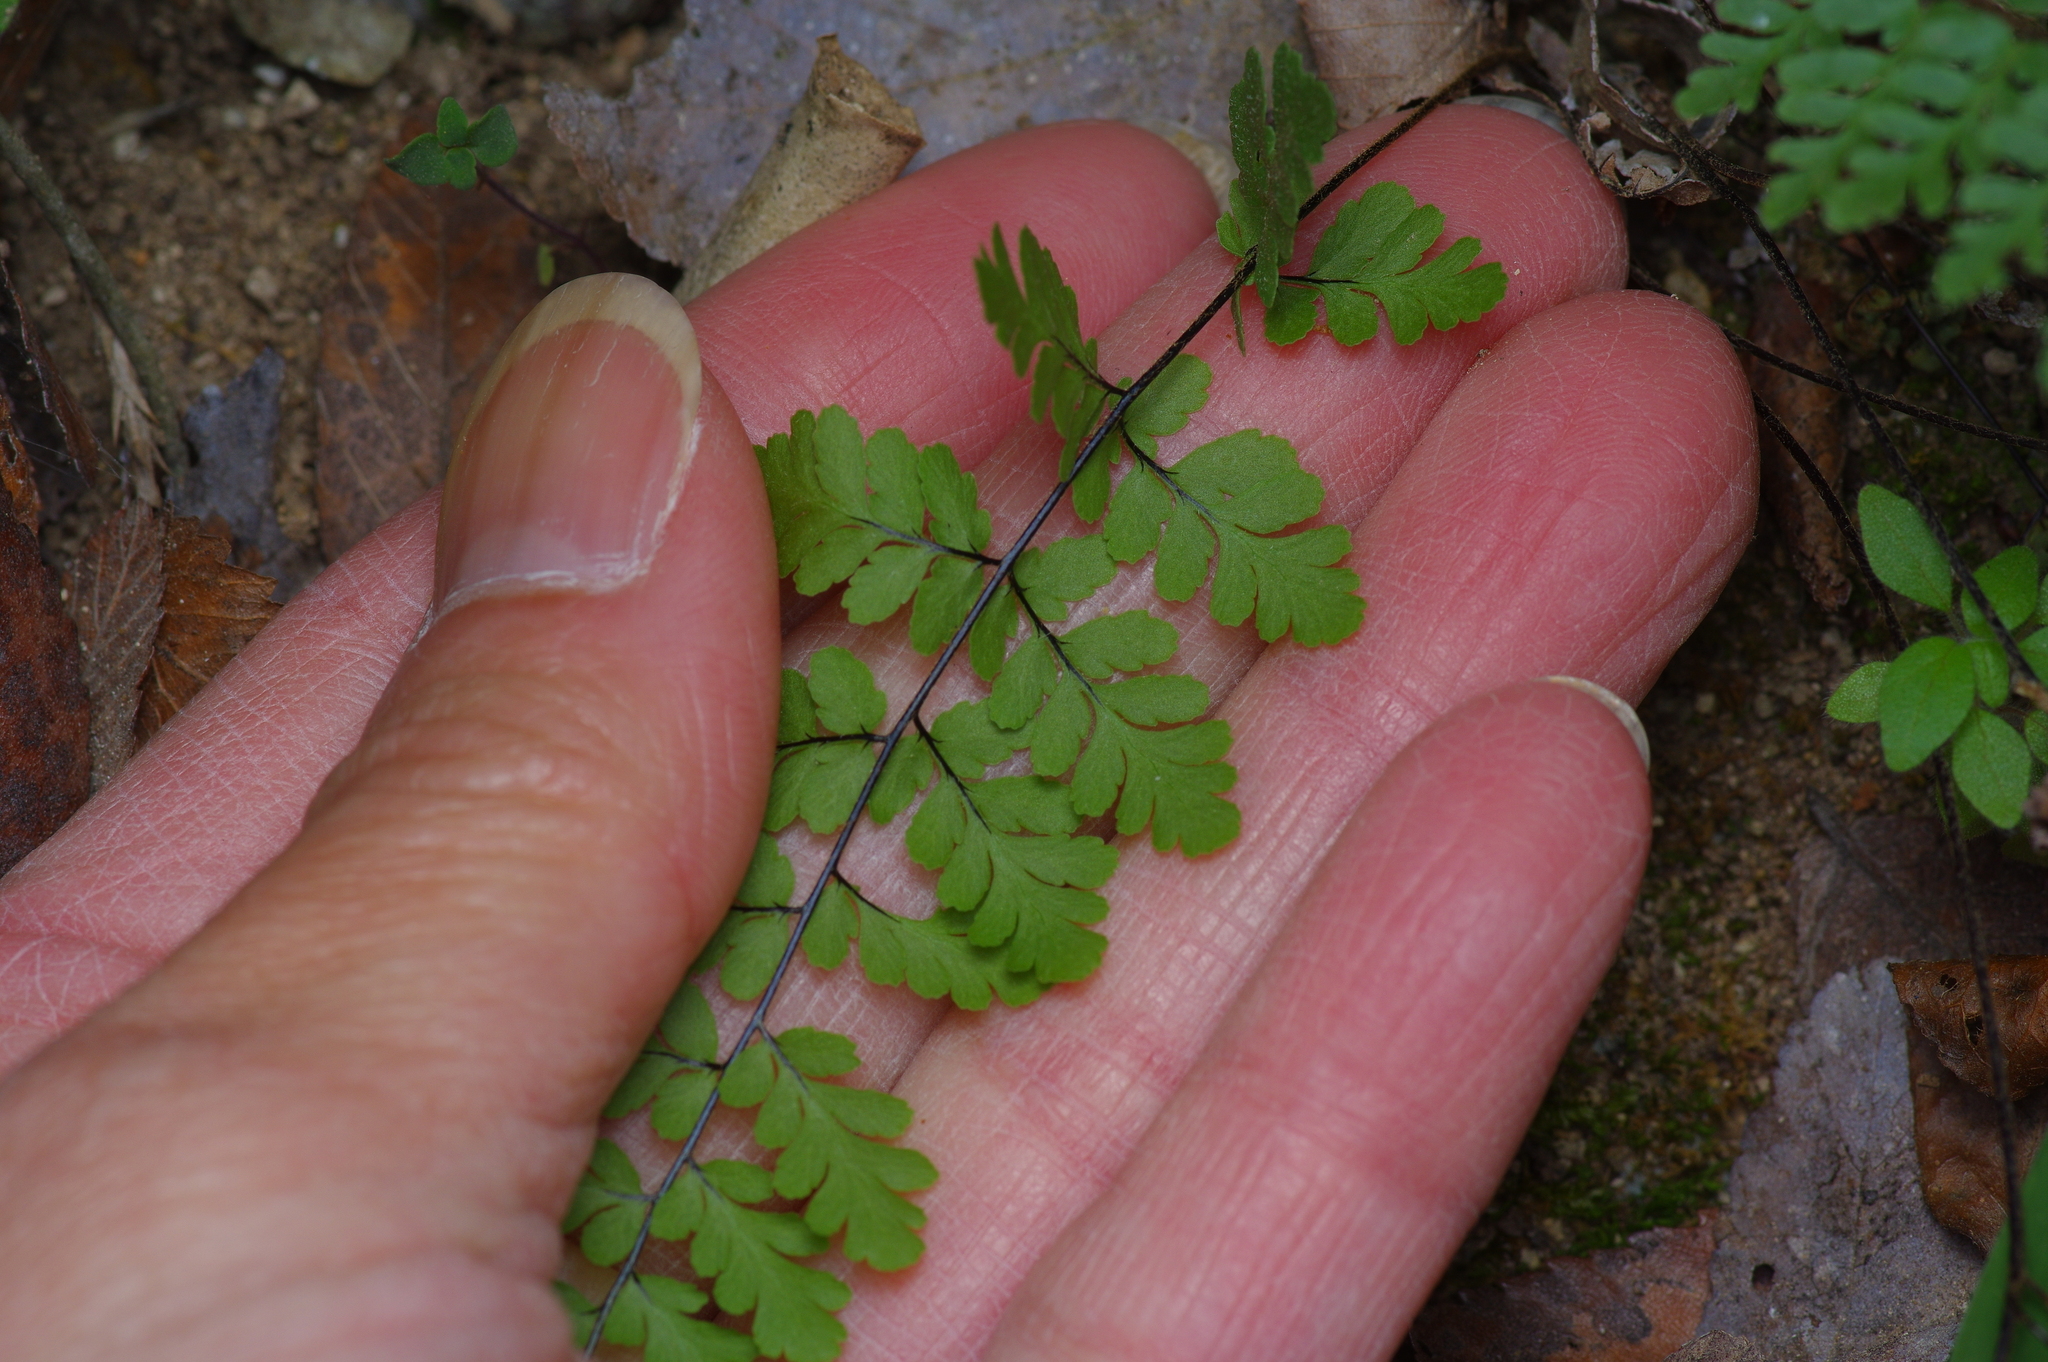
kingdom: Plantae
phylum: Tracheophyta
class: Polypodiopsida
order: Polypodiales
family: Pteridaceae
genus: Myriopteris
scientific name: Myriopteris alabamensis
